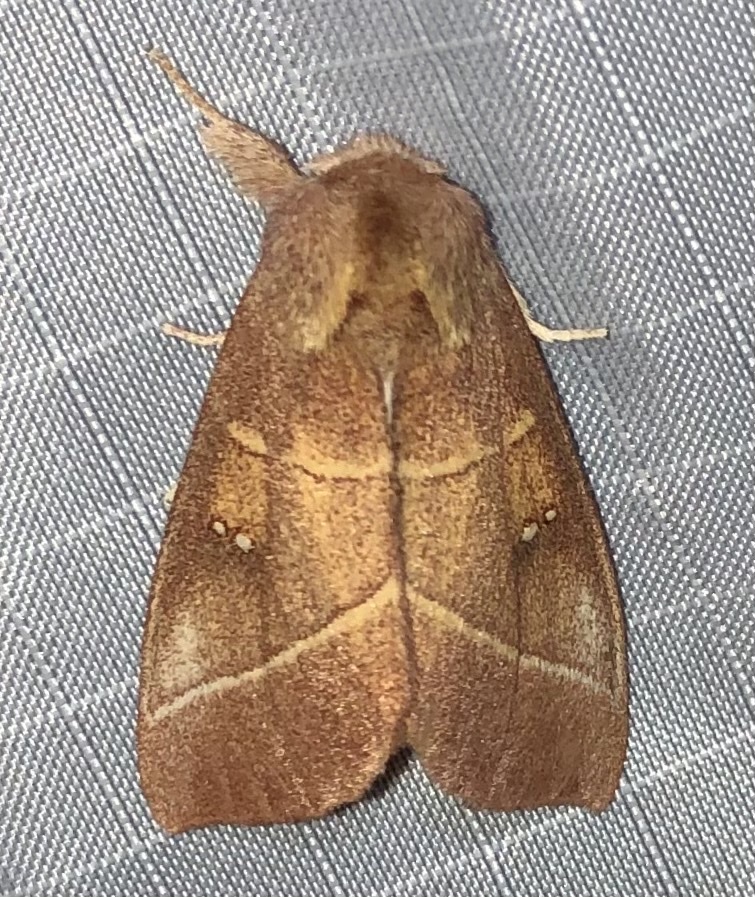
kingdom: Animalia
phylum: Arthropoda
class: Insecta
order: Lepidoptera
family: Notodontidae
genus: Nadata
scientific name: Nadata gibbosa
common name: White-dotted prominent
